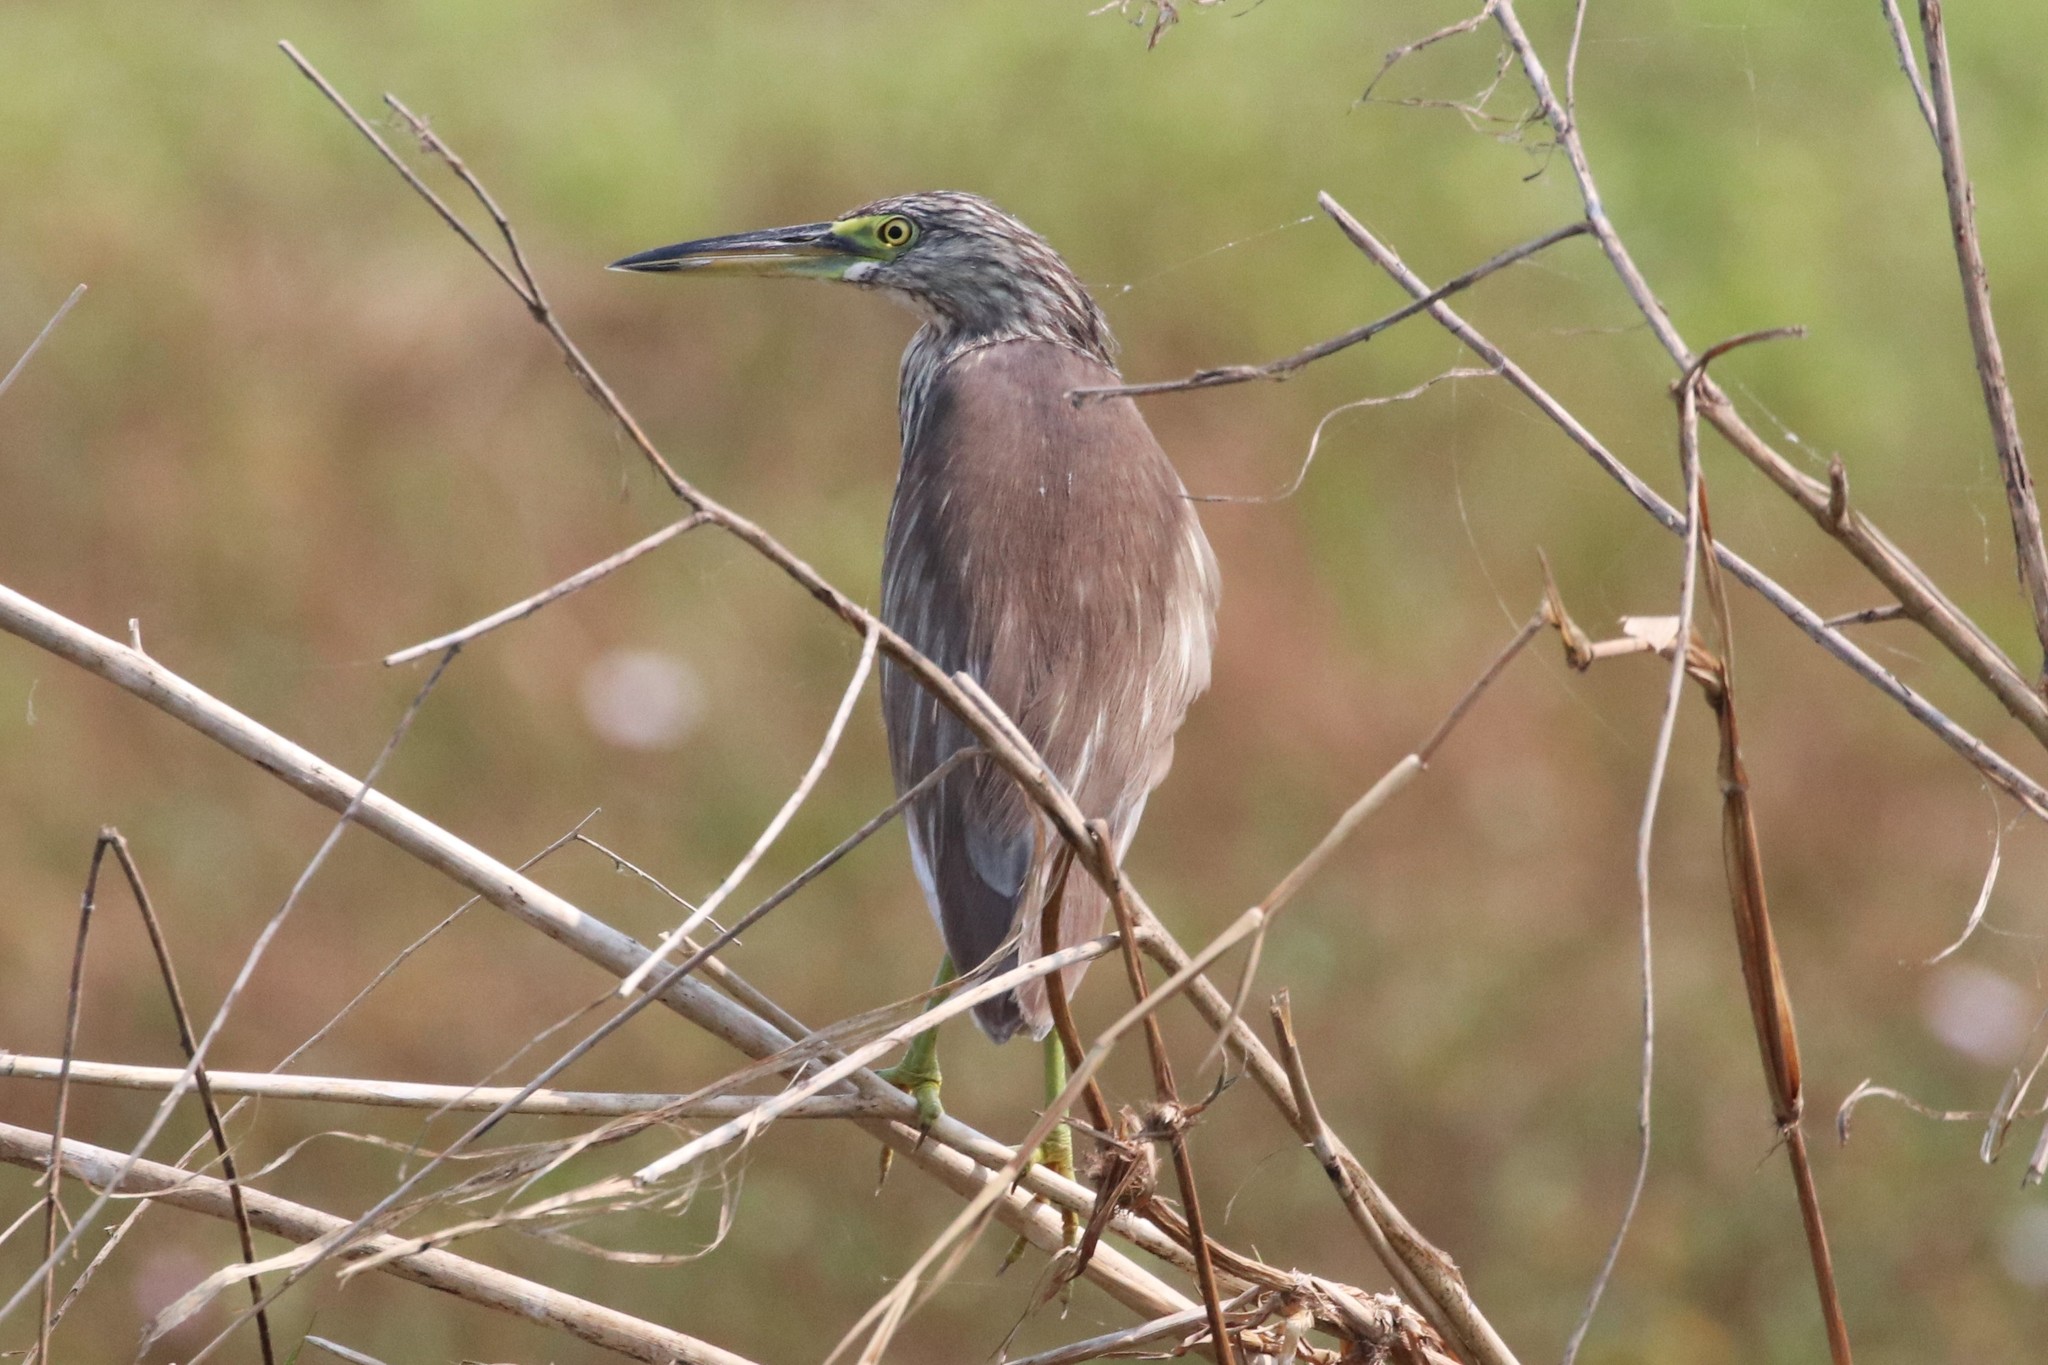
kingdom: Animalia
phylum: Chordata
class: Aves
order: Pelecaniformes
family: Ardeidae
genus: Ardeola
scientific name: Ardeola
